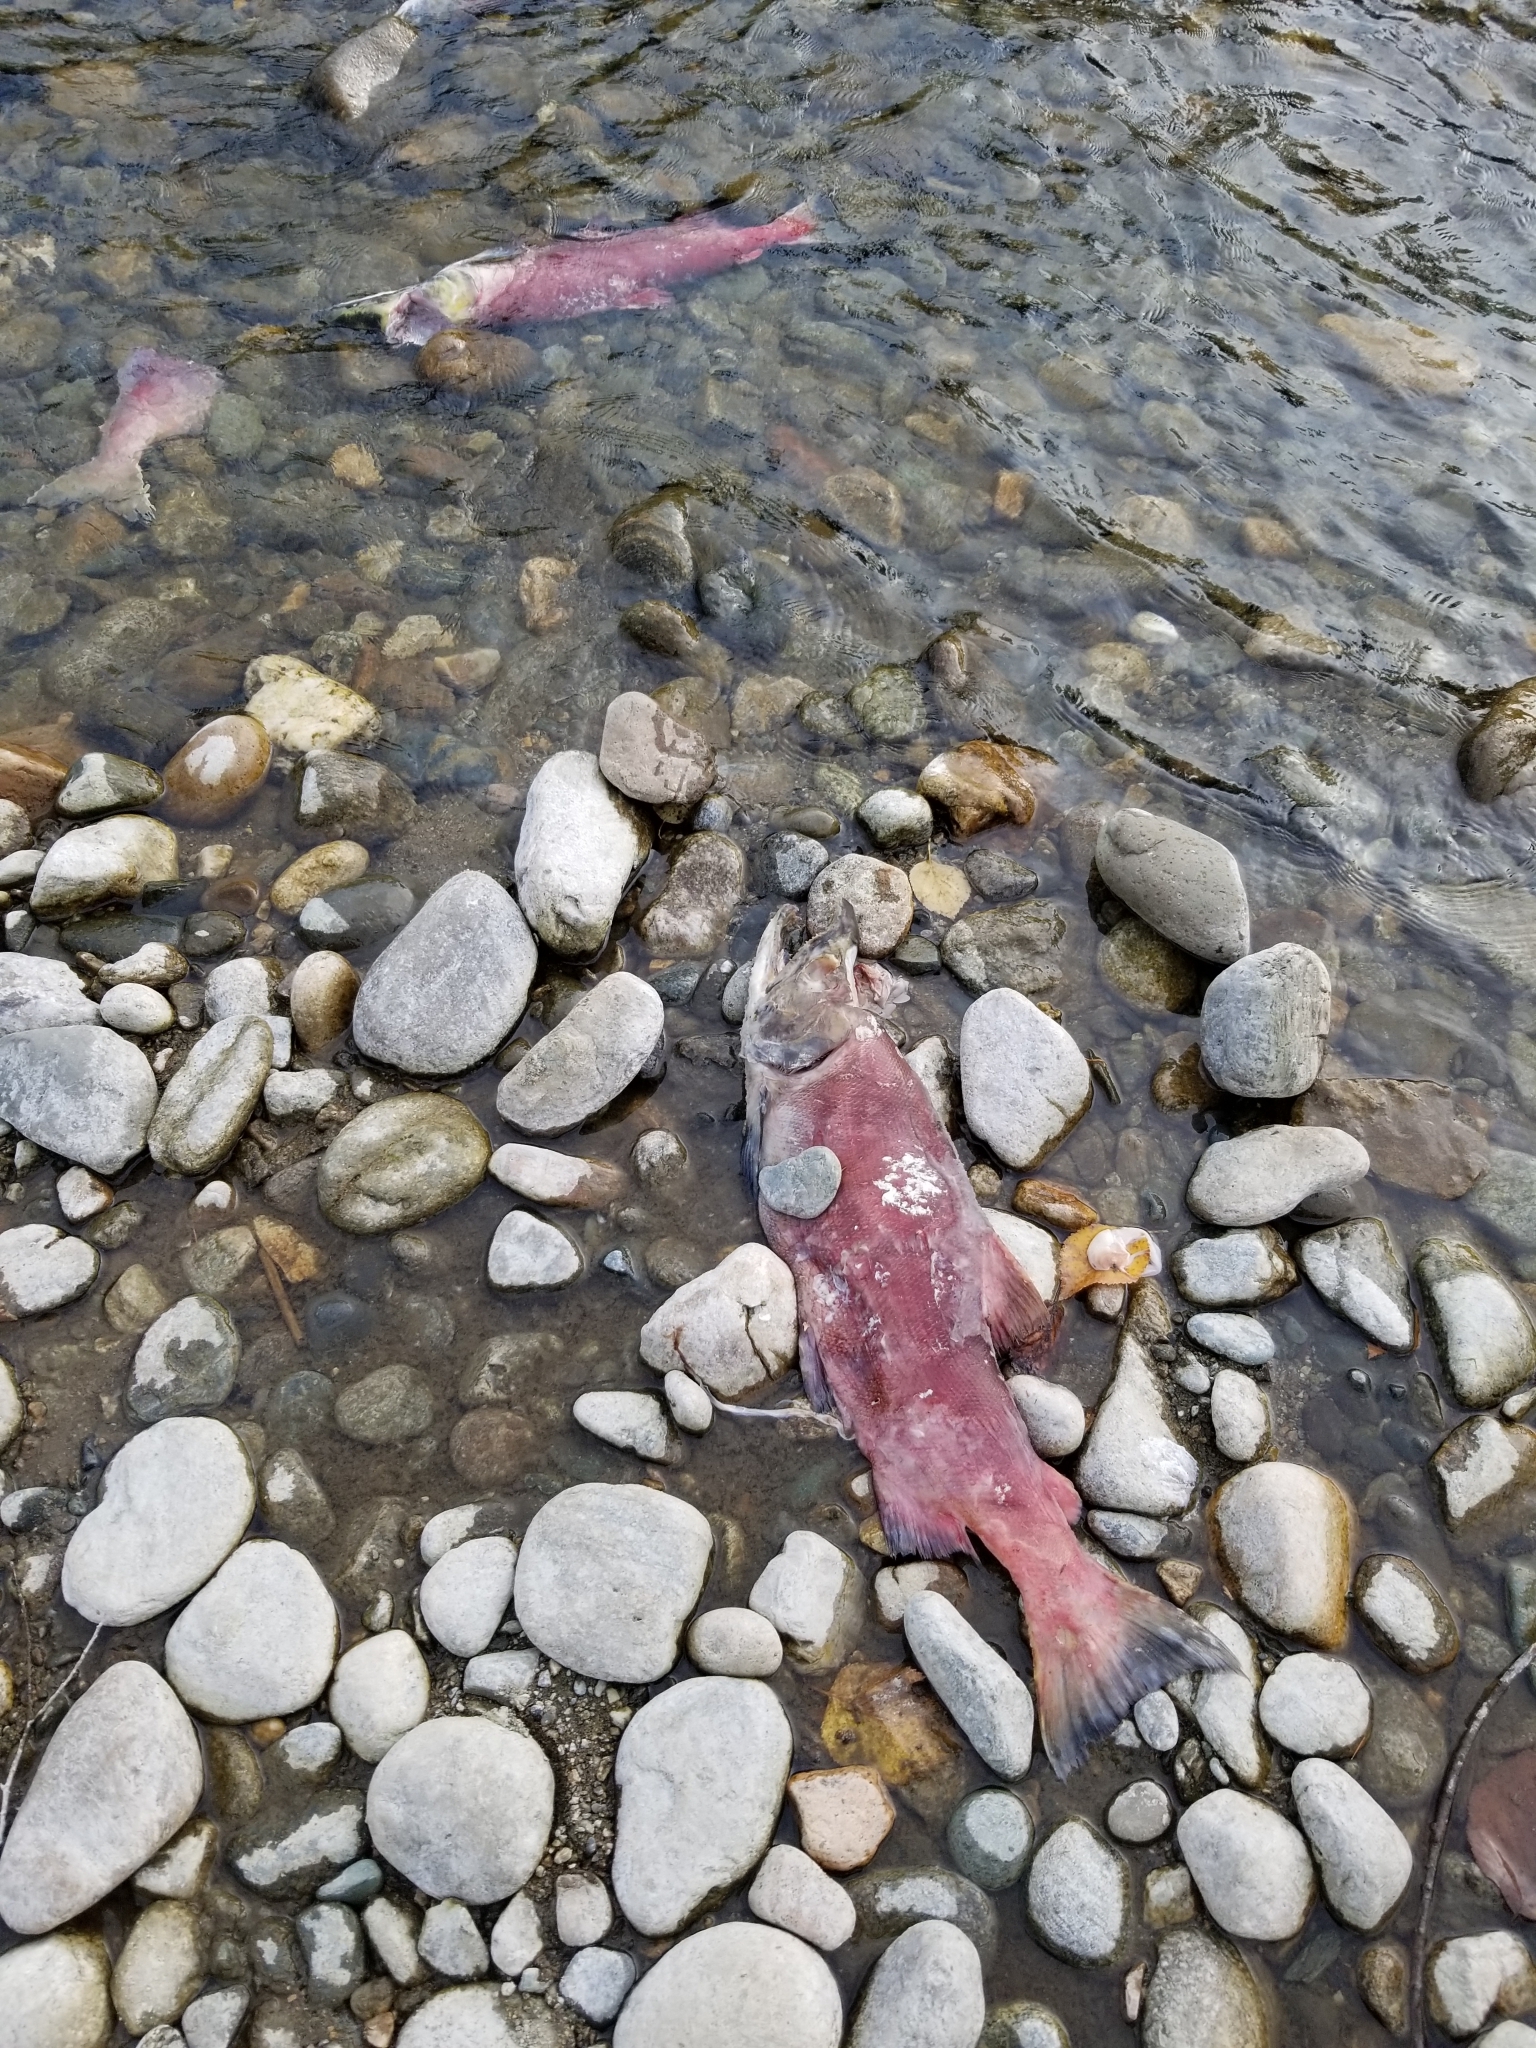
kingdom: Animalia
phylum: Chordata
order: Salmoniformes
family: Salmonidae
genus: Oncorhynchus
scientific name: Oncorhynchus nerka
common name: Sockeye salmon
